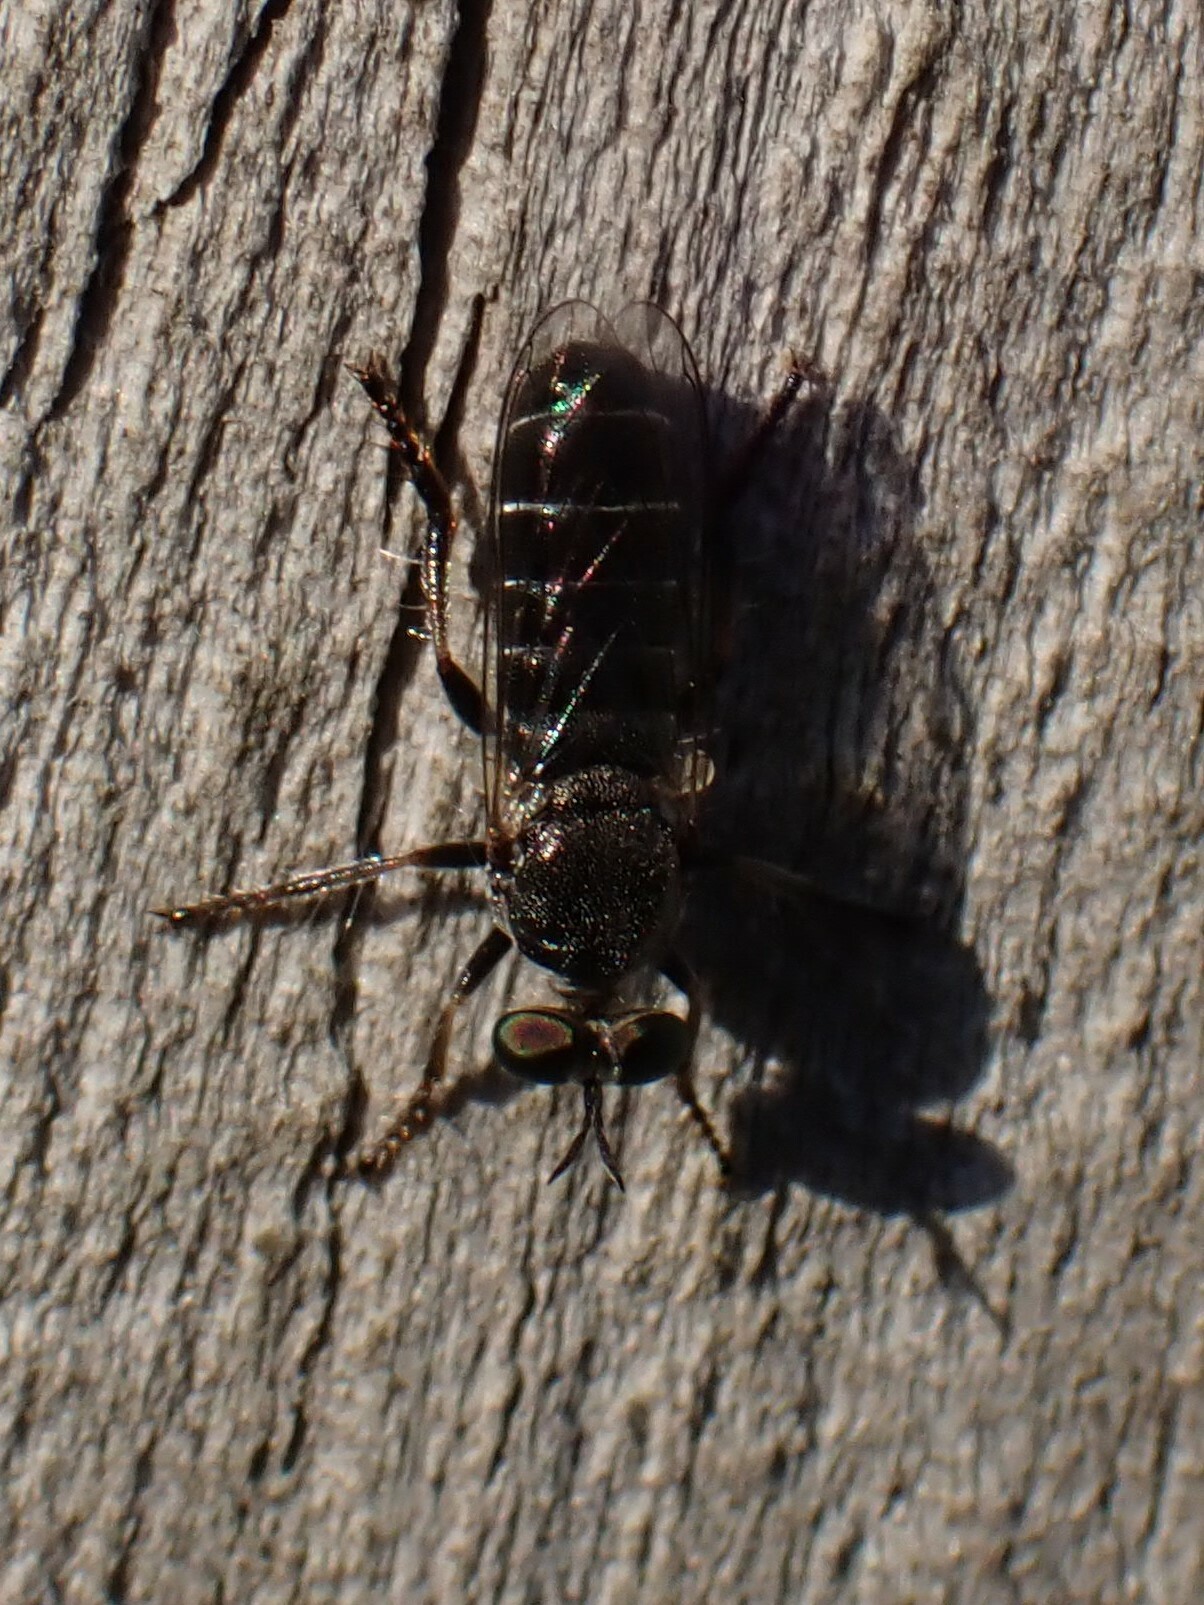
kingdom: Animalia
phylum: Arthropoda
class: Insecta
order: Diptera
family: Asilidae
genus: Atomosia
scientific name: Atomosia puella
